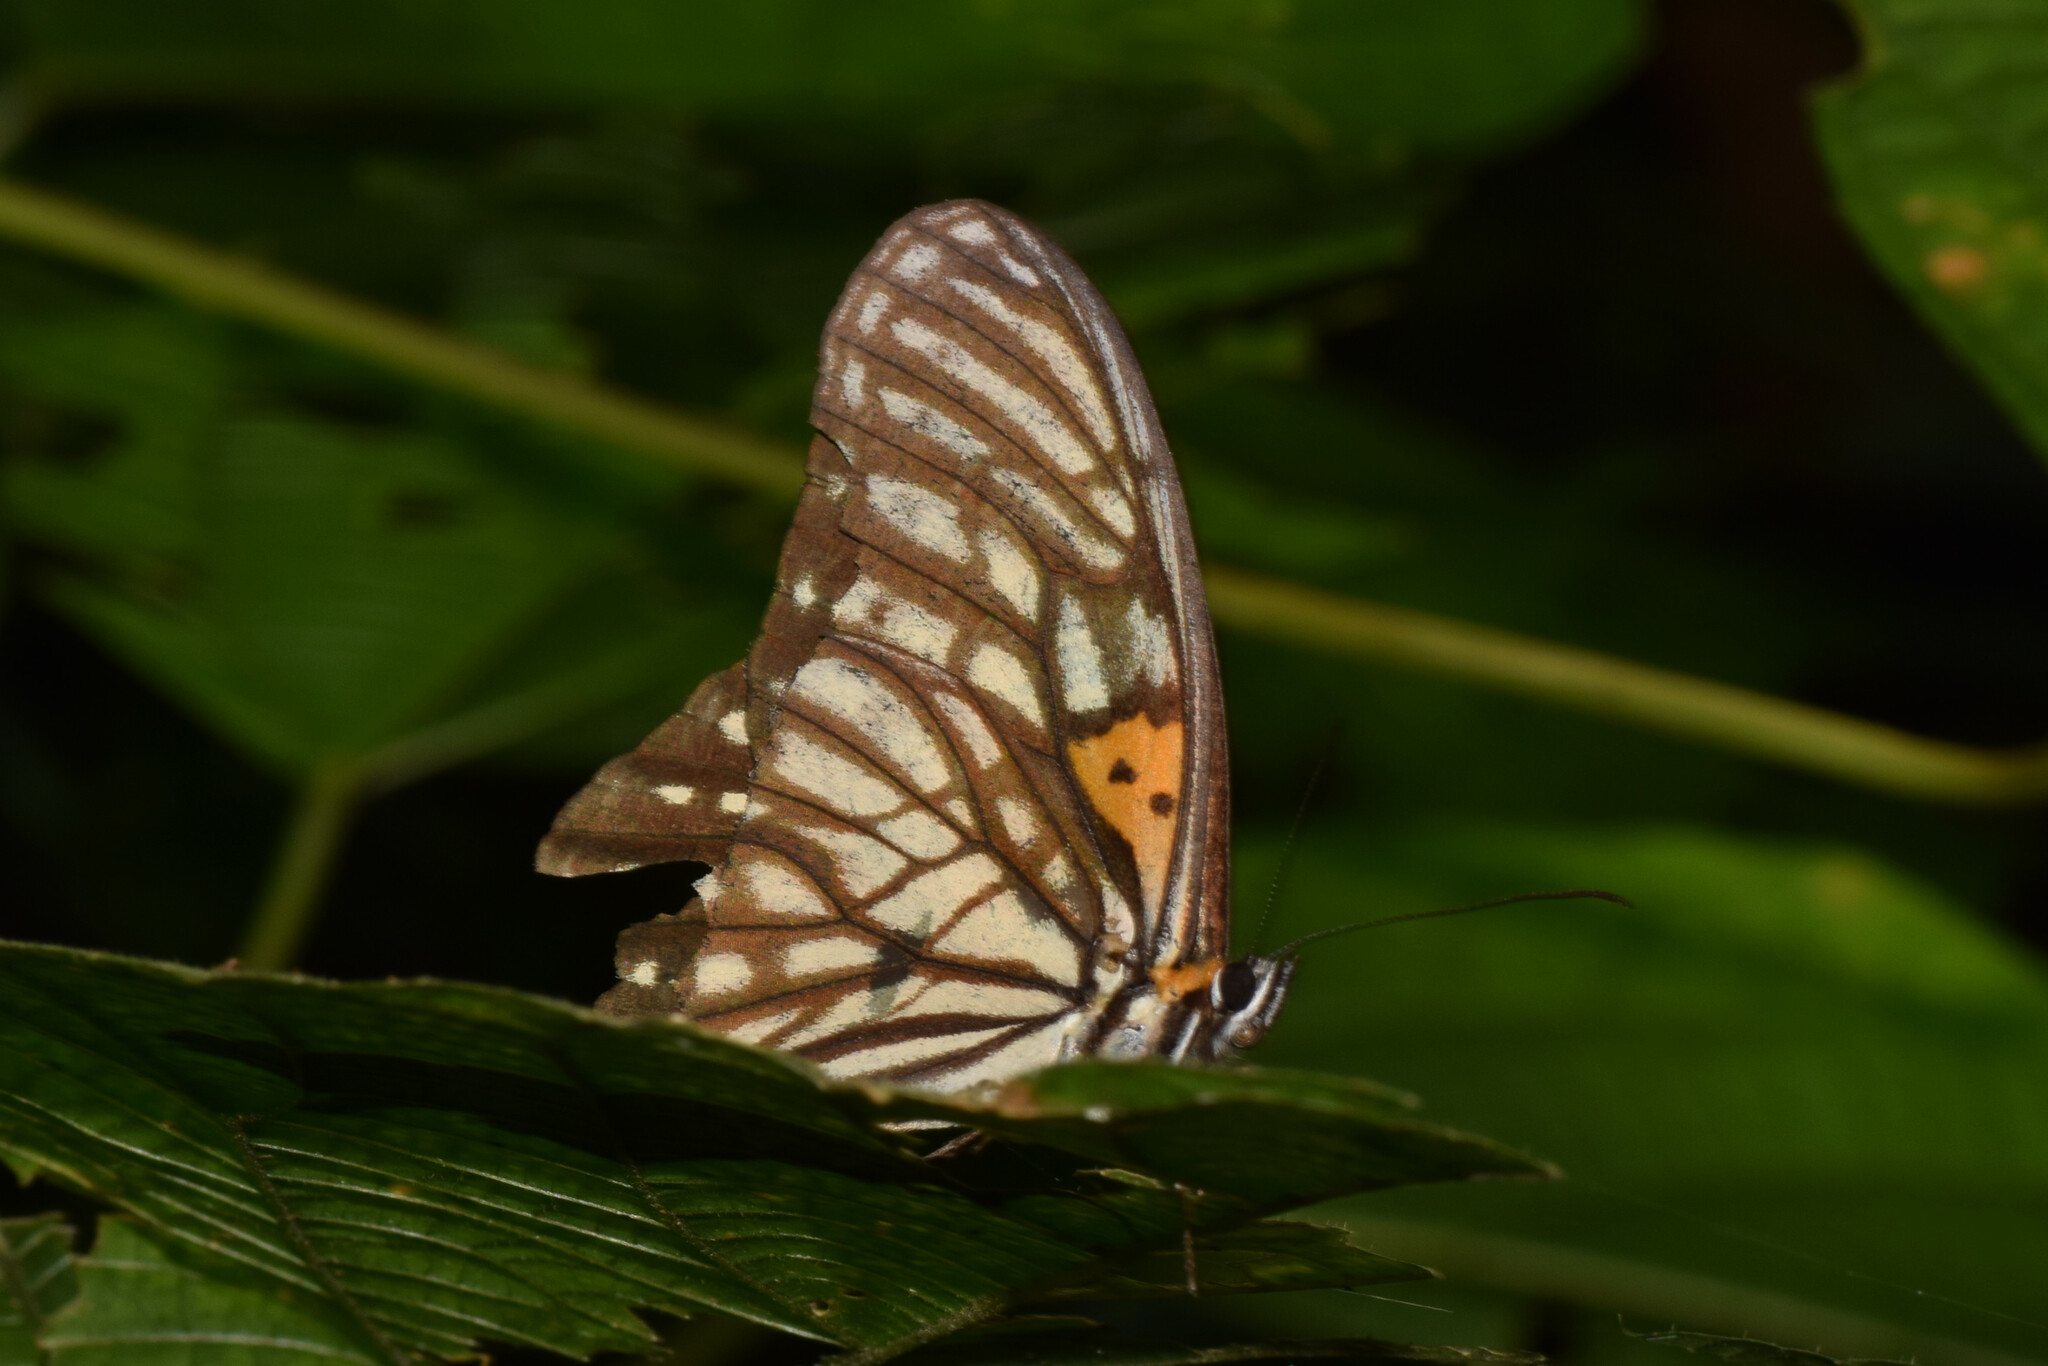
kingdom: Animalia
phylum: Arthropoda
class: Insecta
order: Lepidoptera
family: Nymphalidae
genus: Orinoma
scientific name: Orinoma damaris
